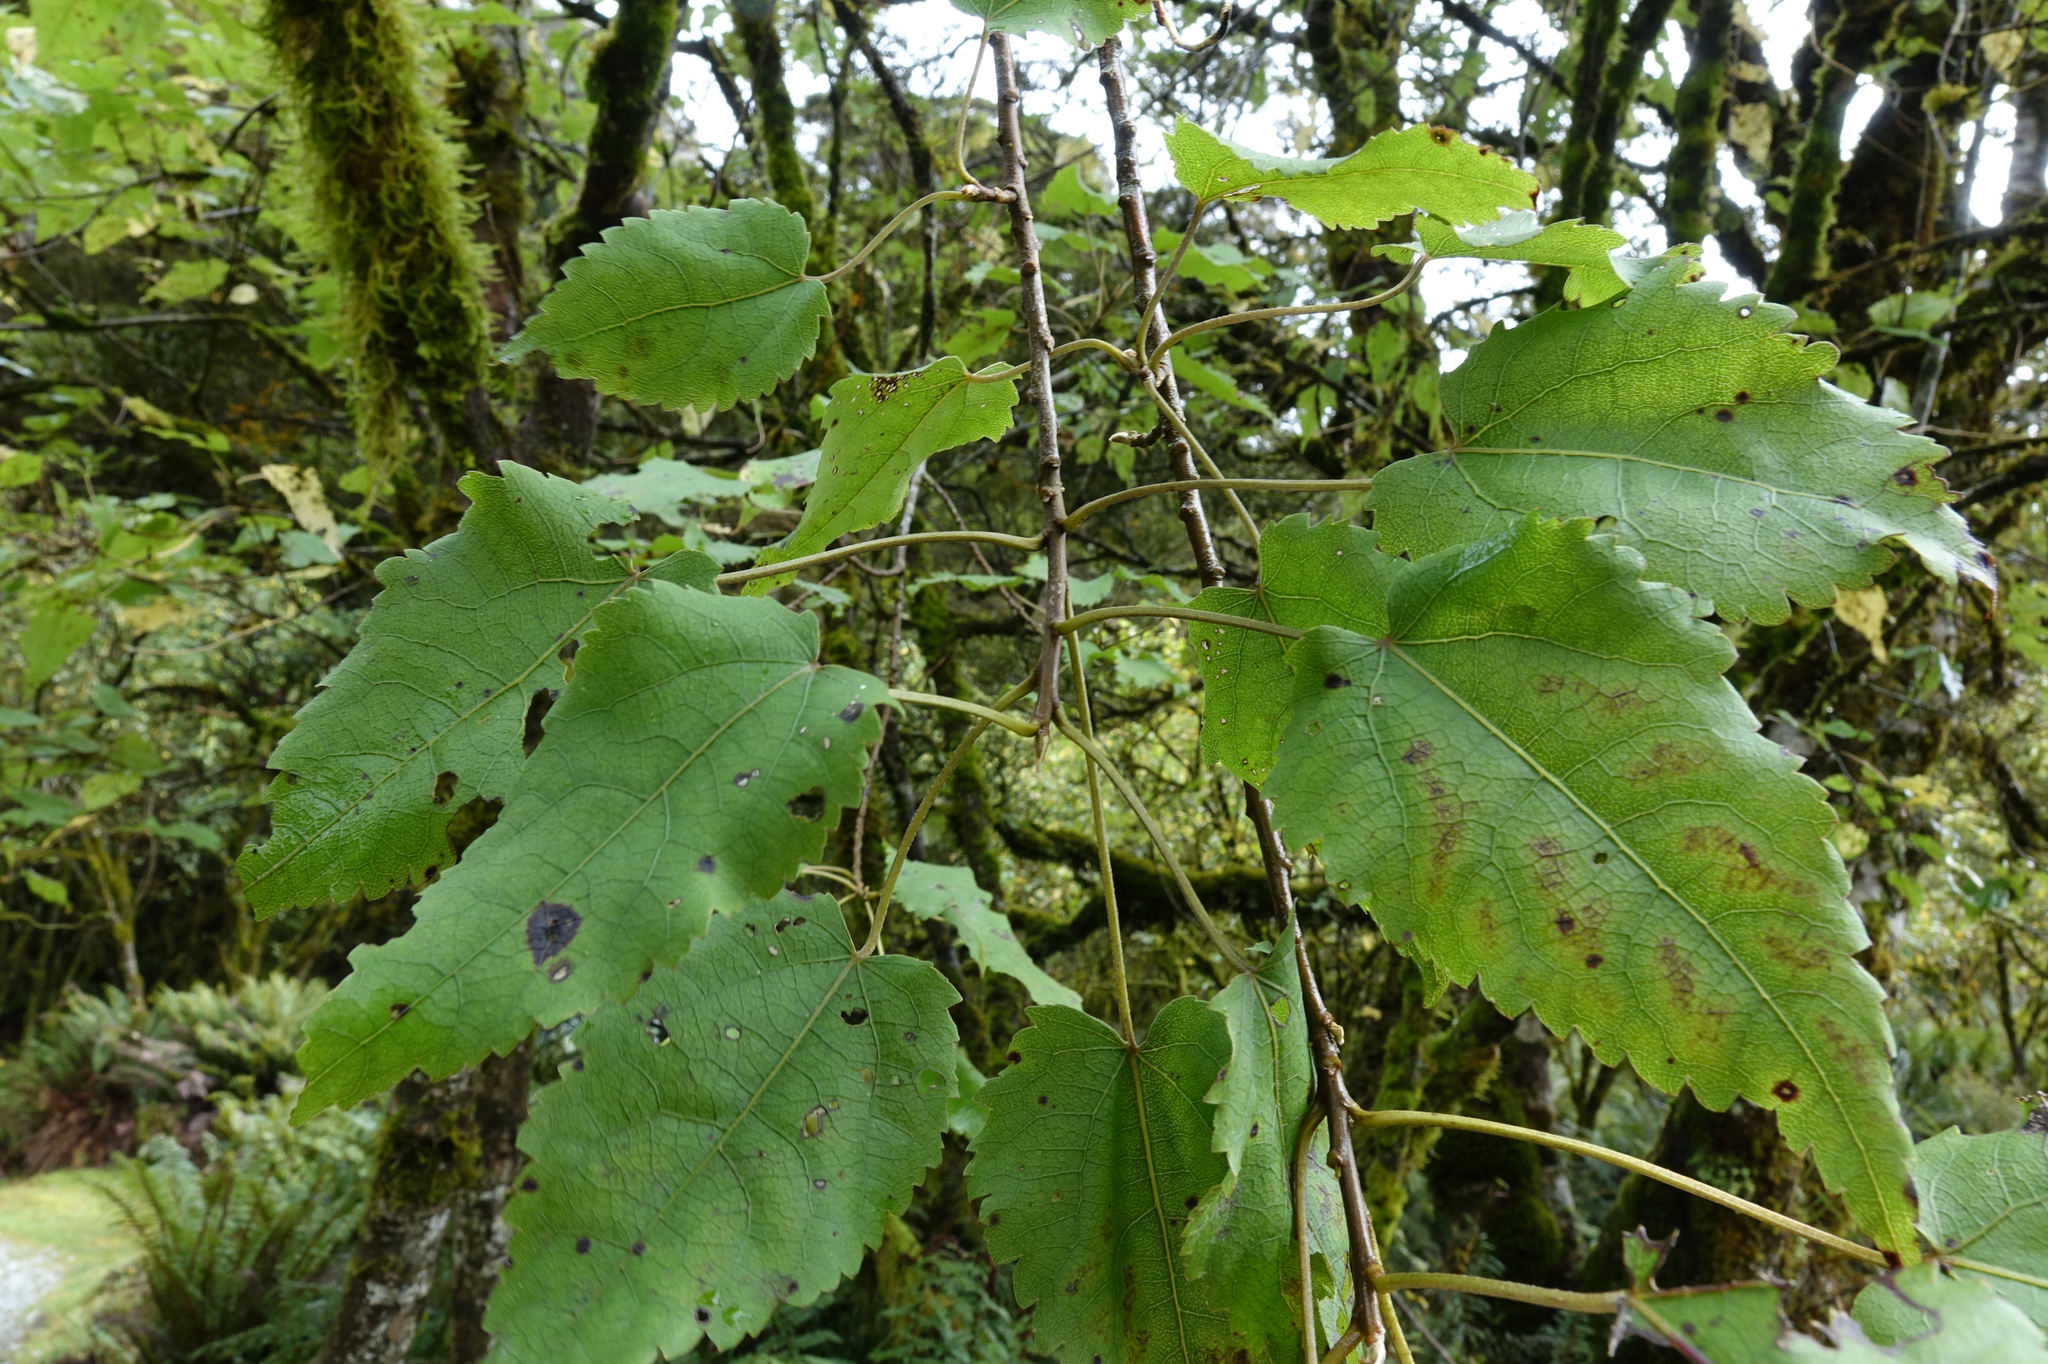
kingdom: Plantae
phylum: Tracheophyta
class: Magnoliopsida
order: Malvales
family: Malvaceae
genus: Hoheria
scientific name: Hoheria glabrata
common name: Mountain-ribbon
